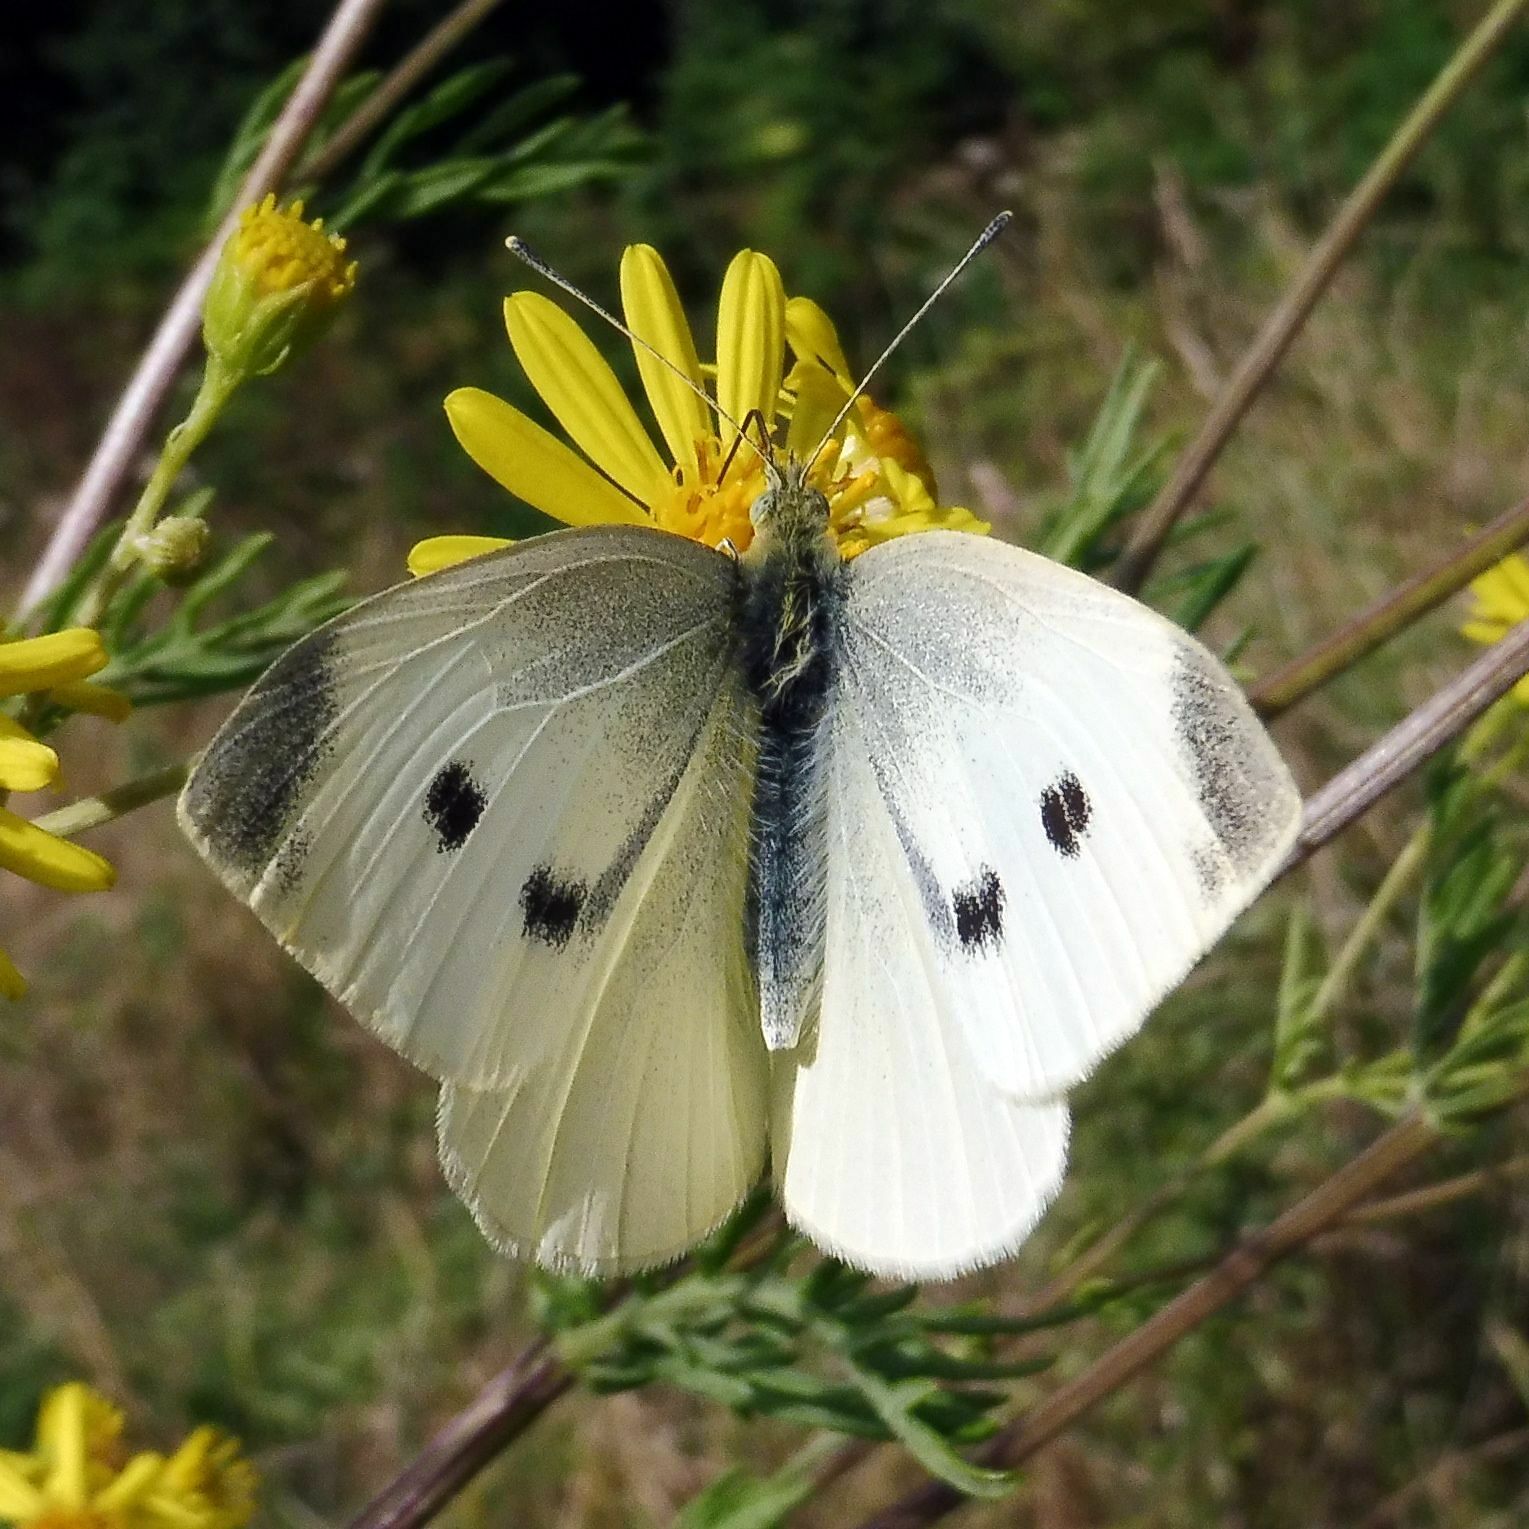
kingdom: Animalia
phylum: Arthropoda
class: Insecta
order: Lepidoptera
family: Pieridae
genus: Pieris
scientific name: Pieris rapae
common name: Small white
